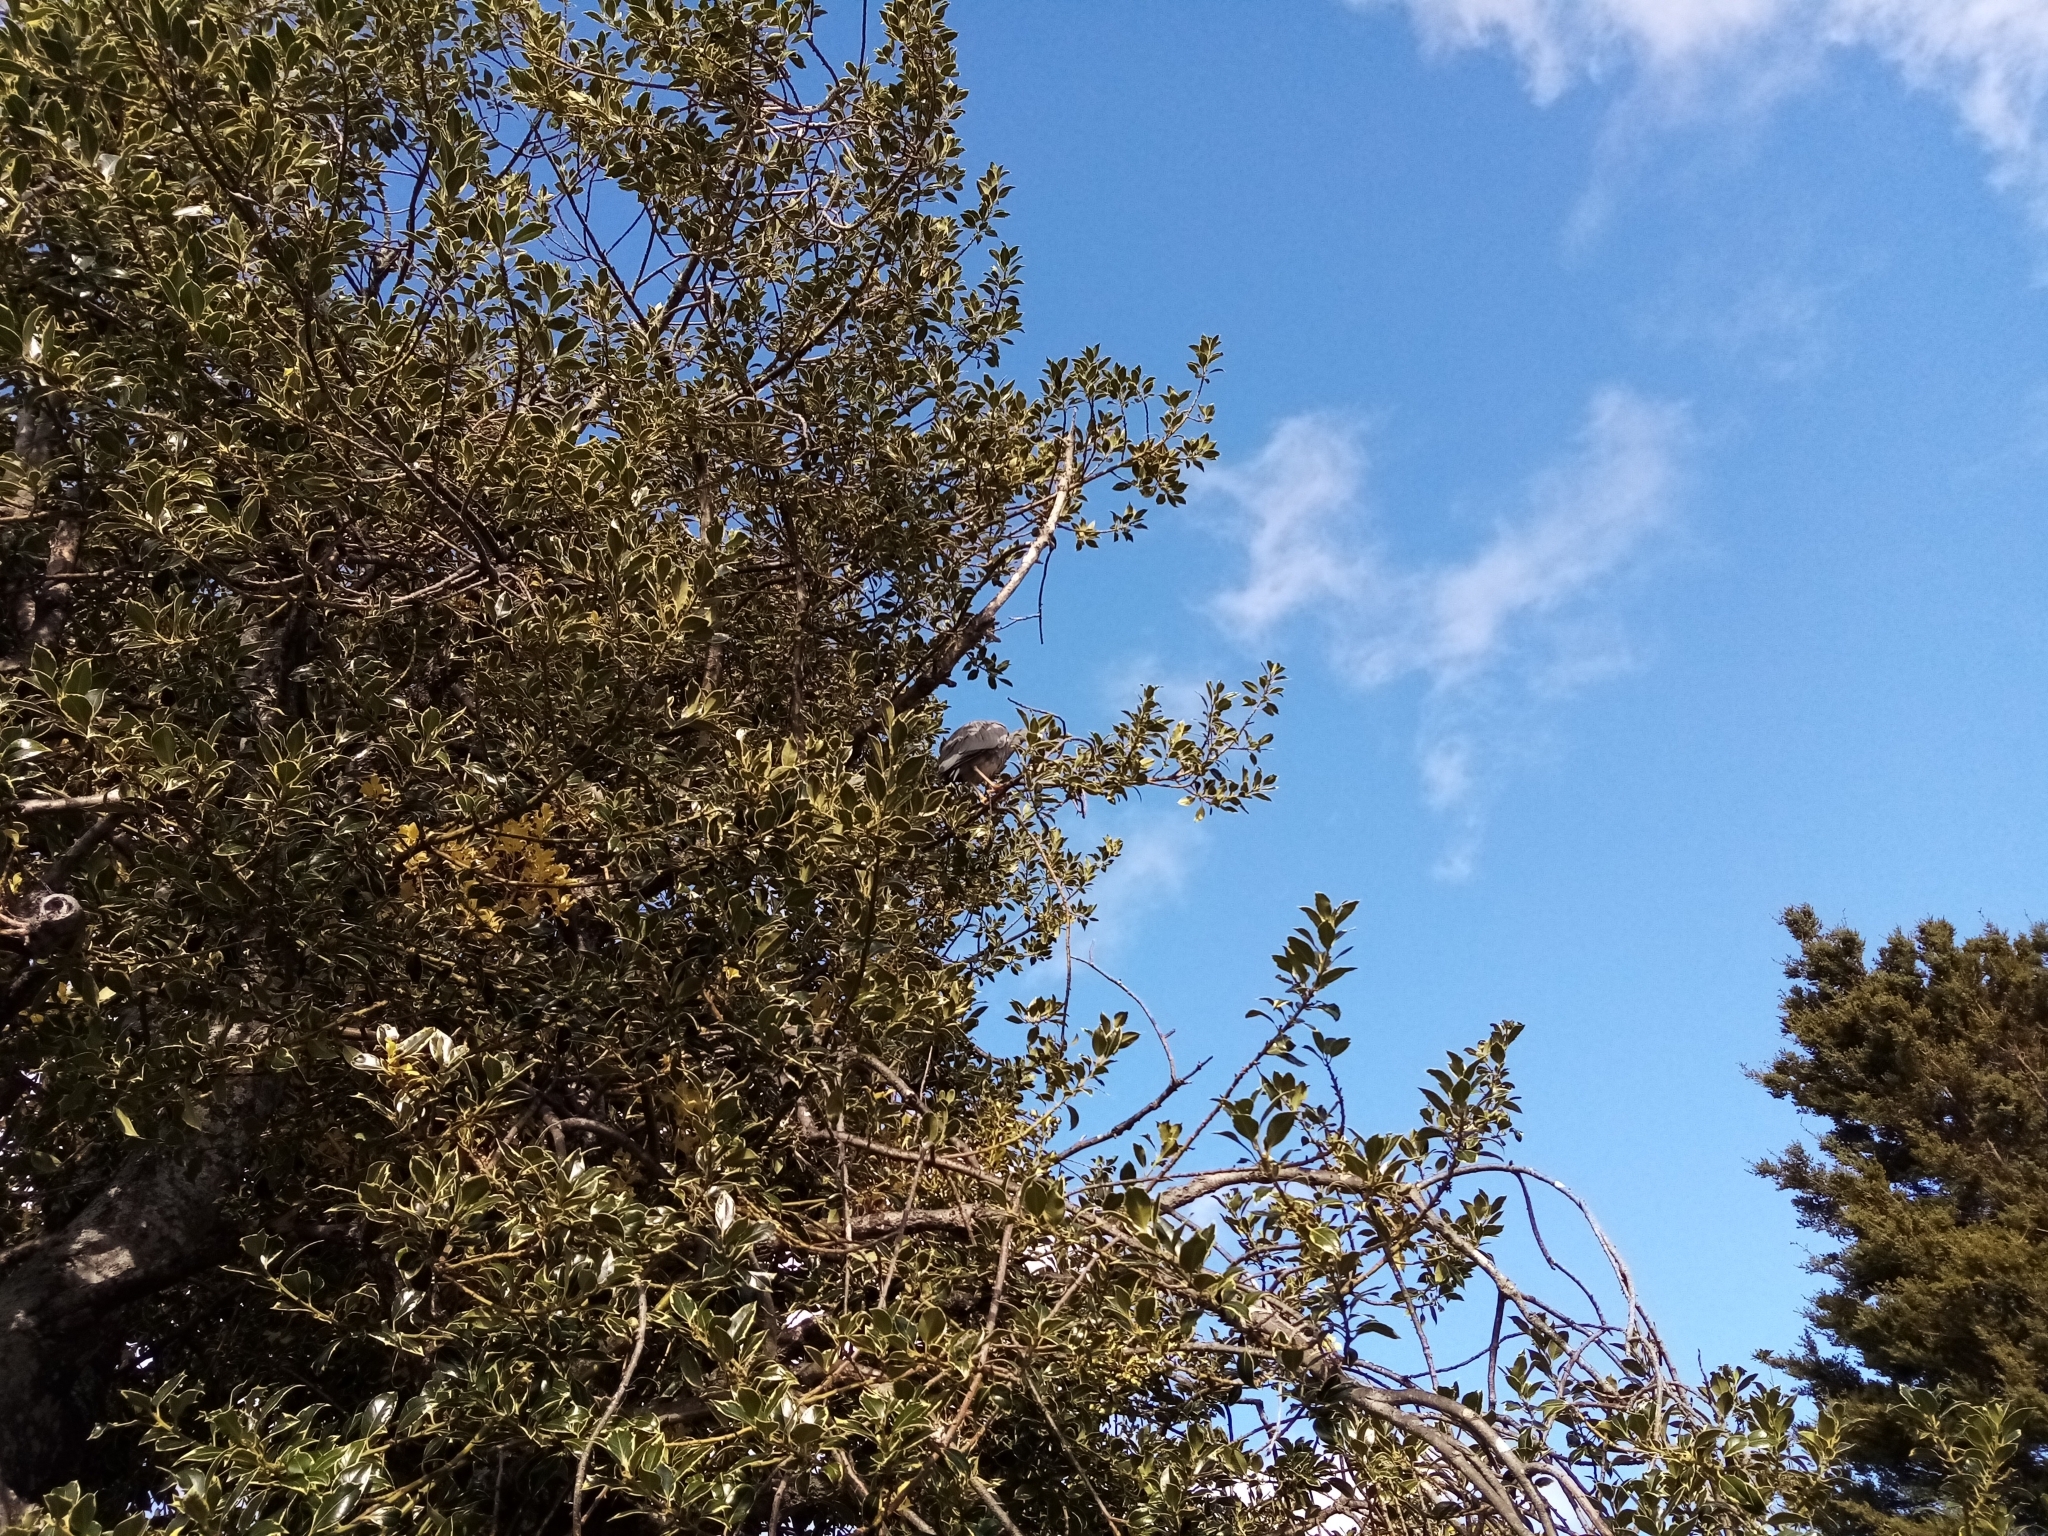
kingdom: Animalia
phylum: Chordata
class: Aves
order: Pelecaniformes
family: Ardeidae
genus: Egretta
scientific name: Egretta novaehollandiae
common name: White-faced heron
